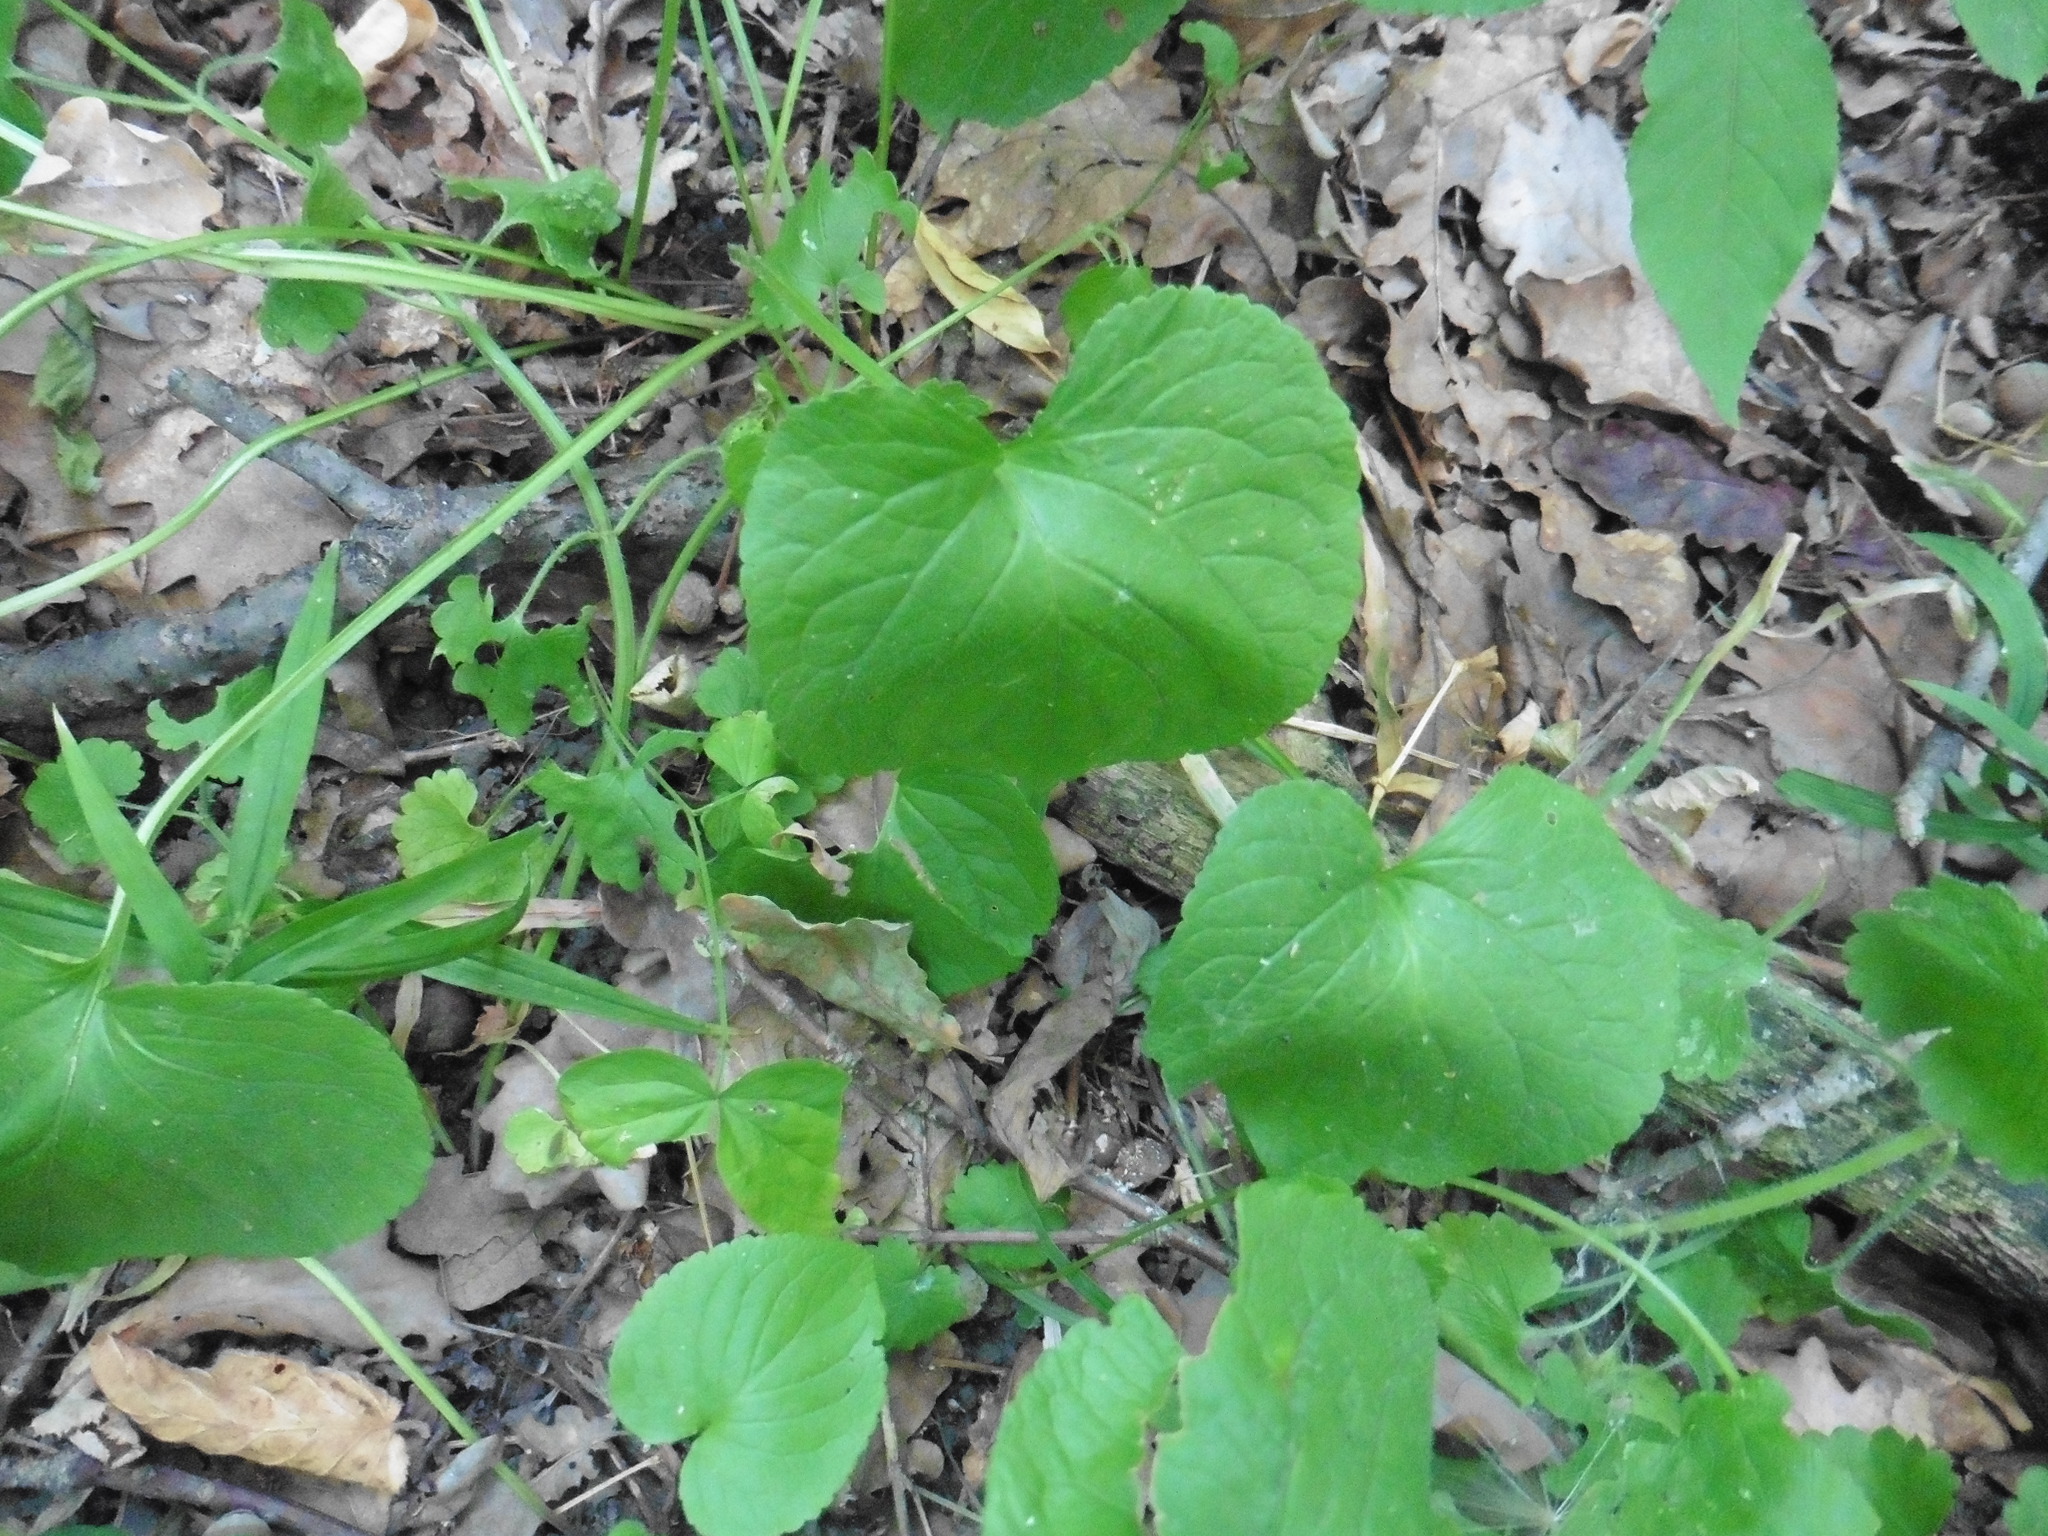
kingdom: Plantae
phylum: Tracheophyta
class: Magnoliopsida
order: Malpighiales
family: Violaceae
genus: Viola
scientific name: Viola mirabilis
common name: Wonder violet
